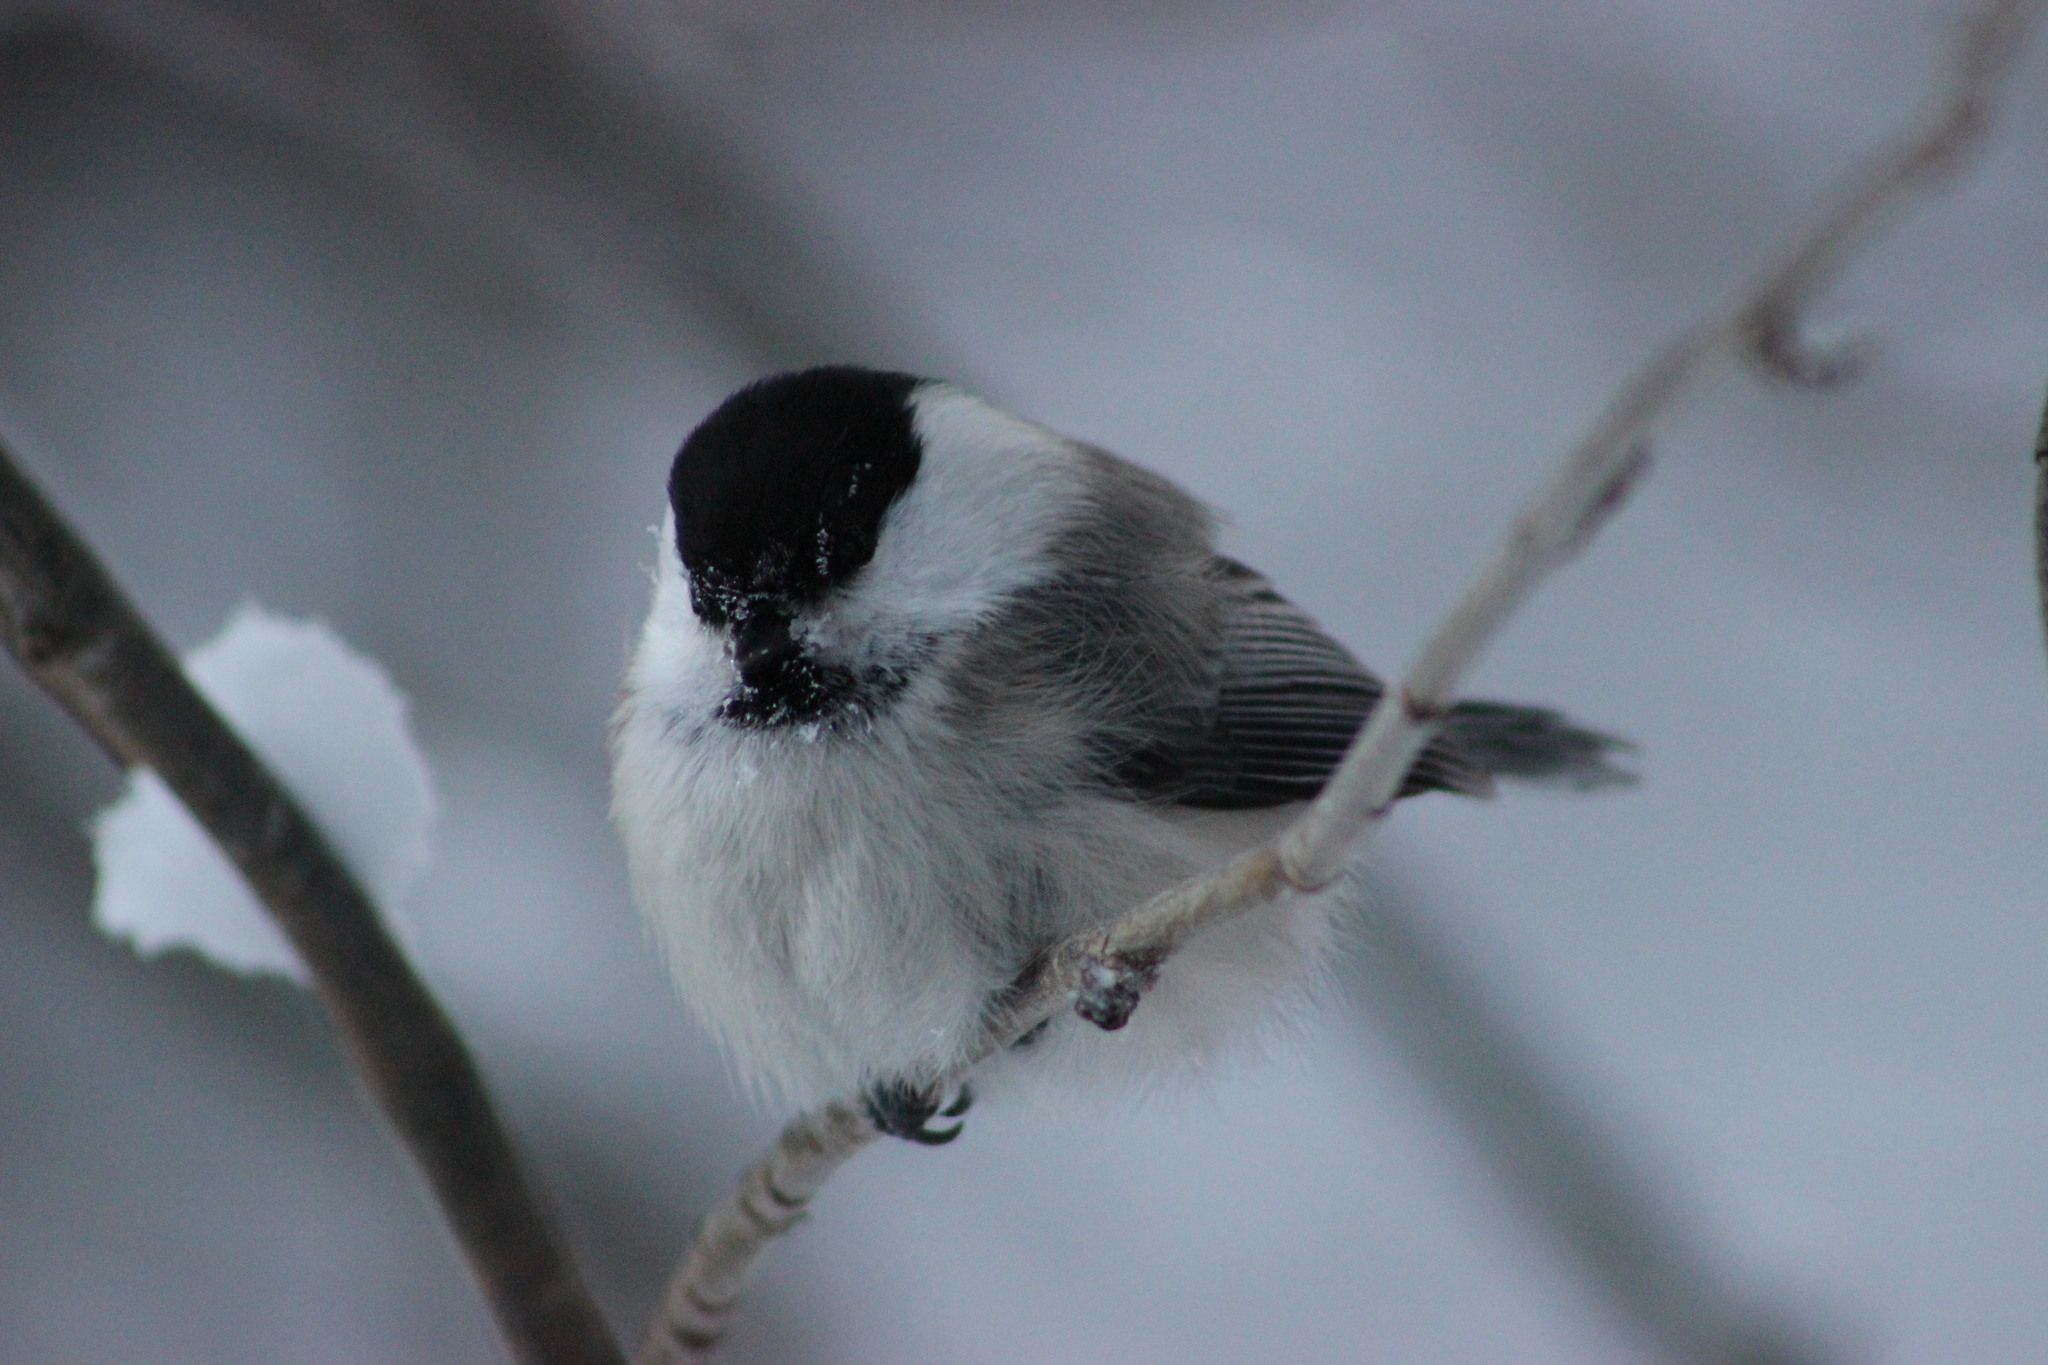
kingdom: Animalia
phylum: Chordata
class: Aves
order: Passeriformes
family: Paridae
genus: Poecile
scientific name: Poecile montanus
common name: Willow tit
